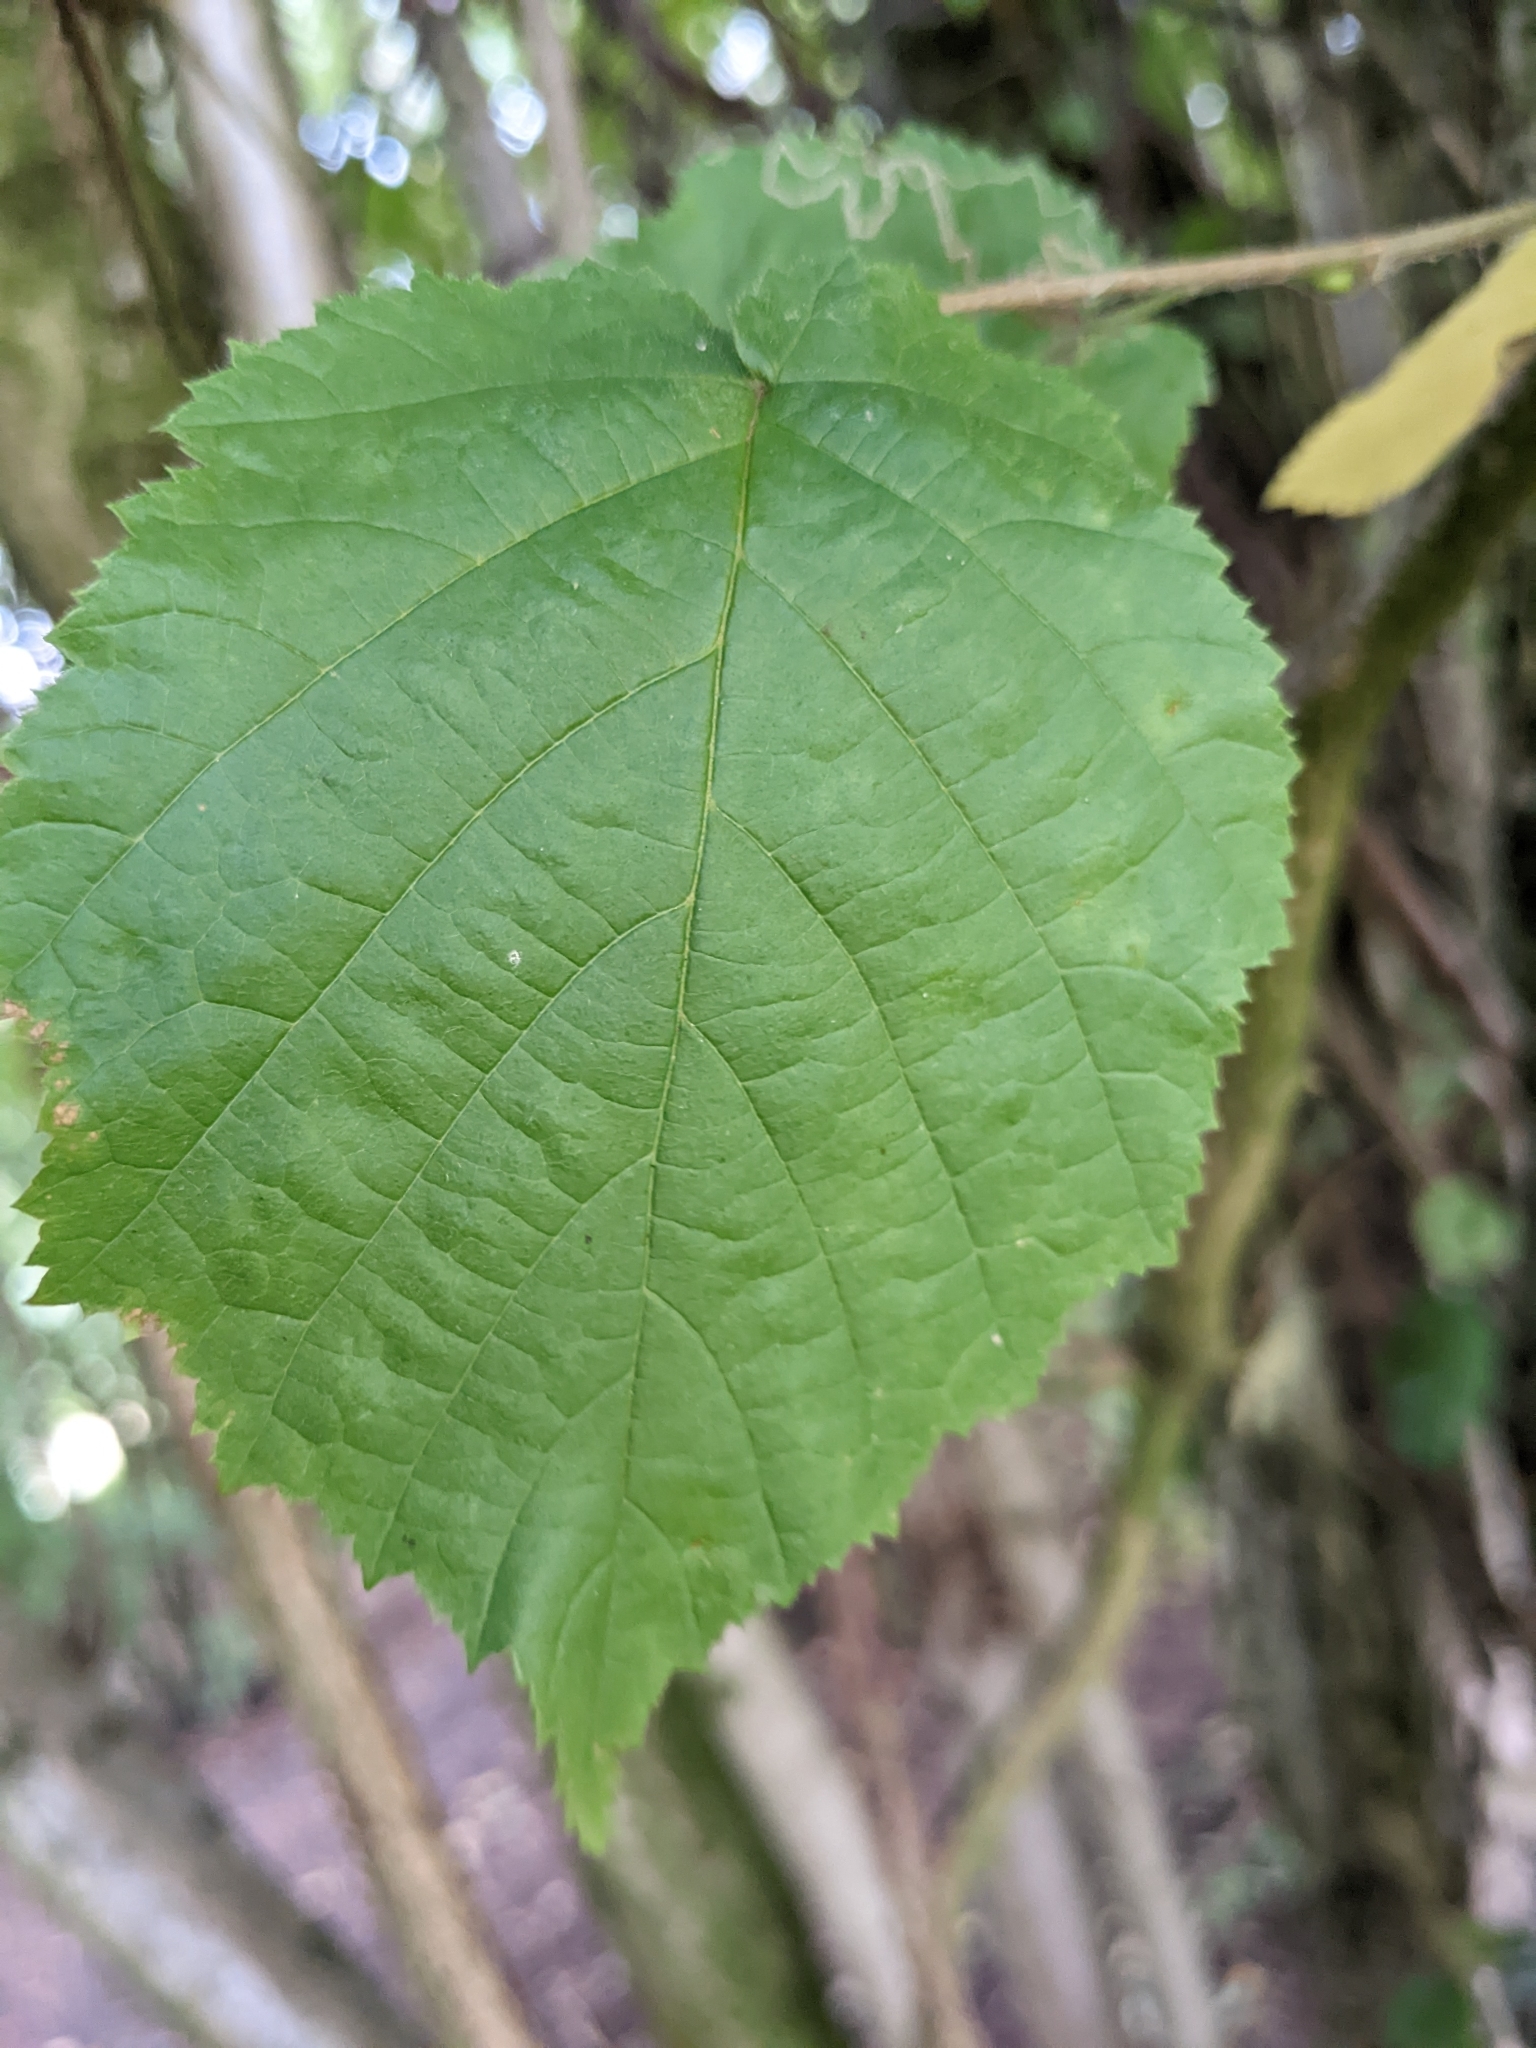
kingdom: Plantae
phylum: Tracheophyta
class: Magnoliopsida
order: Fagales
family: Betulaceae
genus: Corylus
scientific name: Corylus avellana
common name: European hazel
